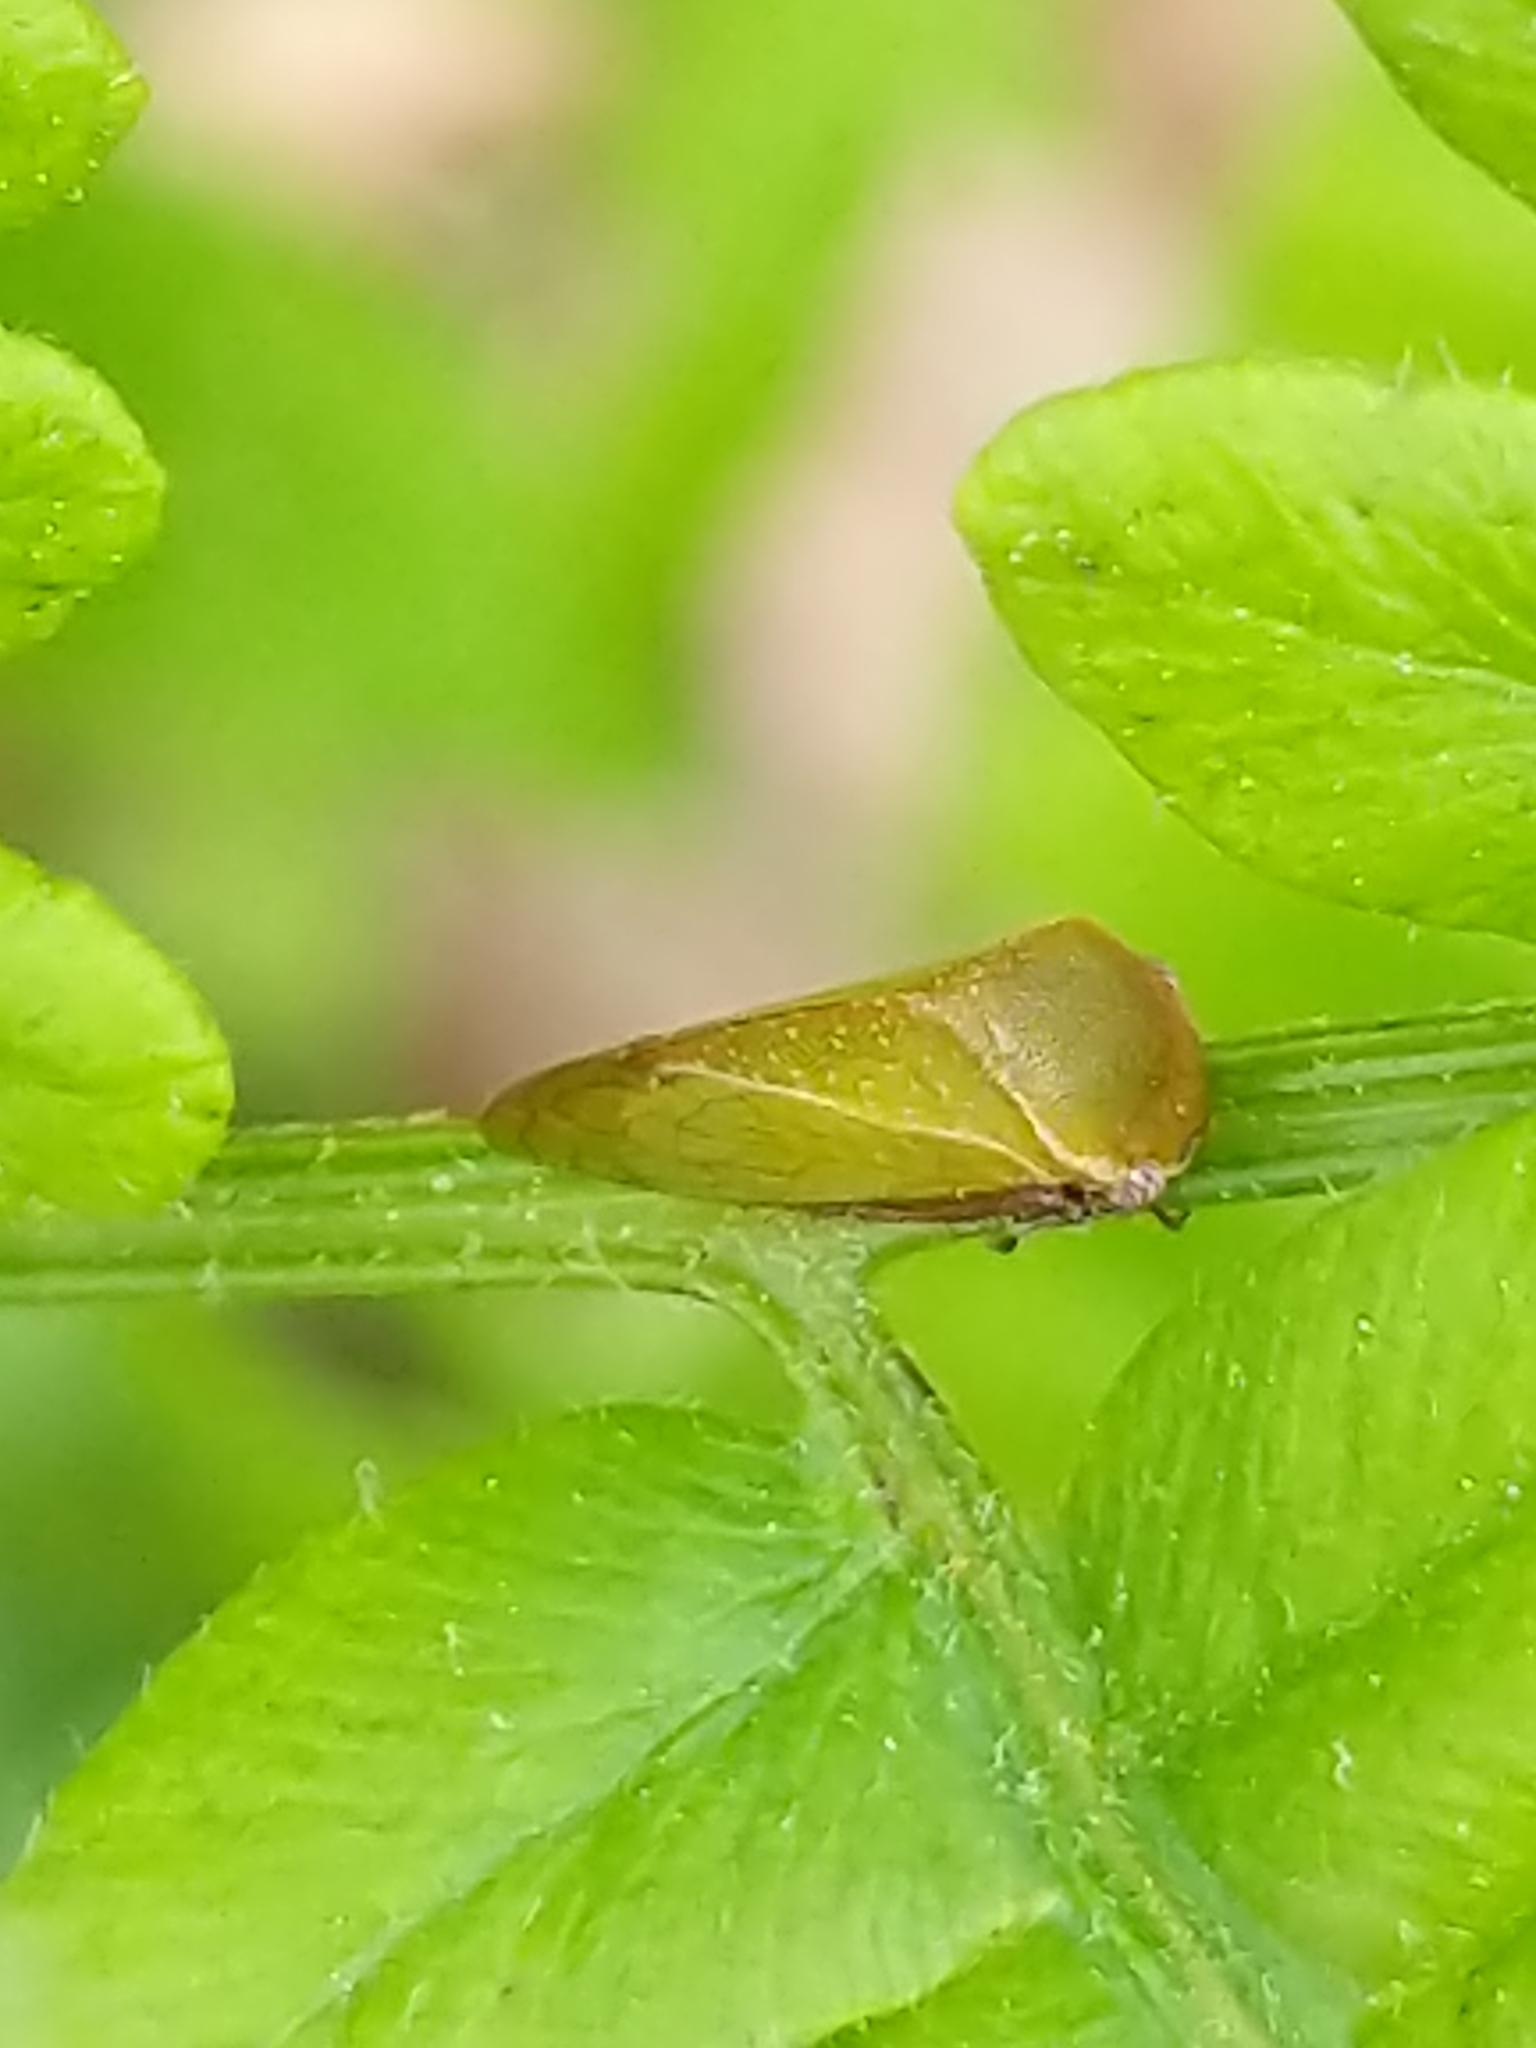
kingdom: Animalia
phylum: Arthropoda
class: Insecta
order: Hemiptera
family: Membracidae
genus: Stictocephala
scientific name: Stictocephala lutea
